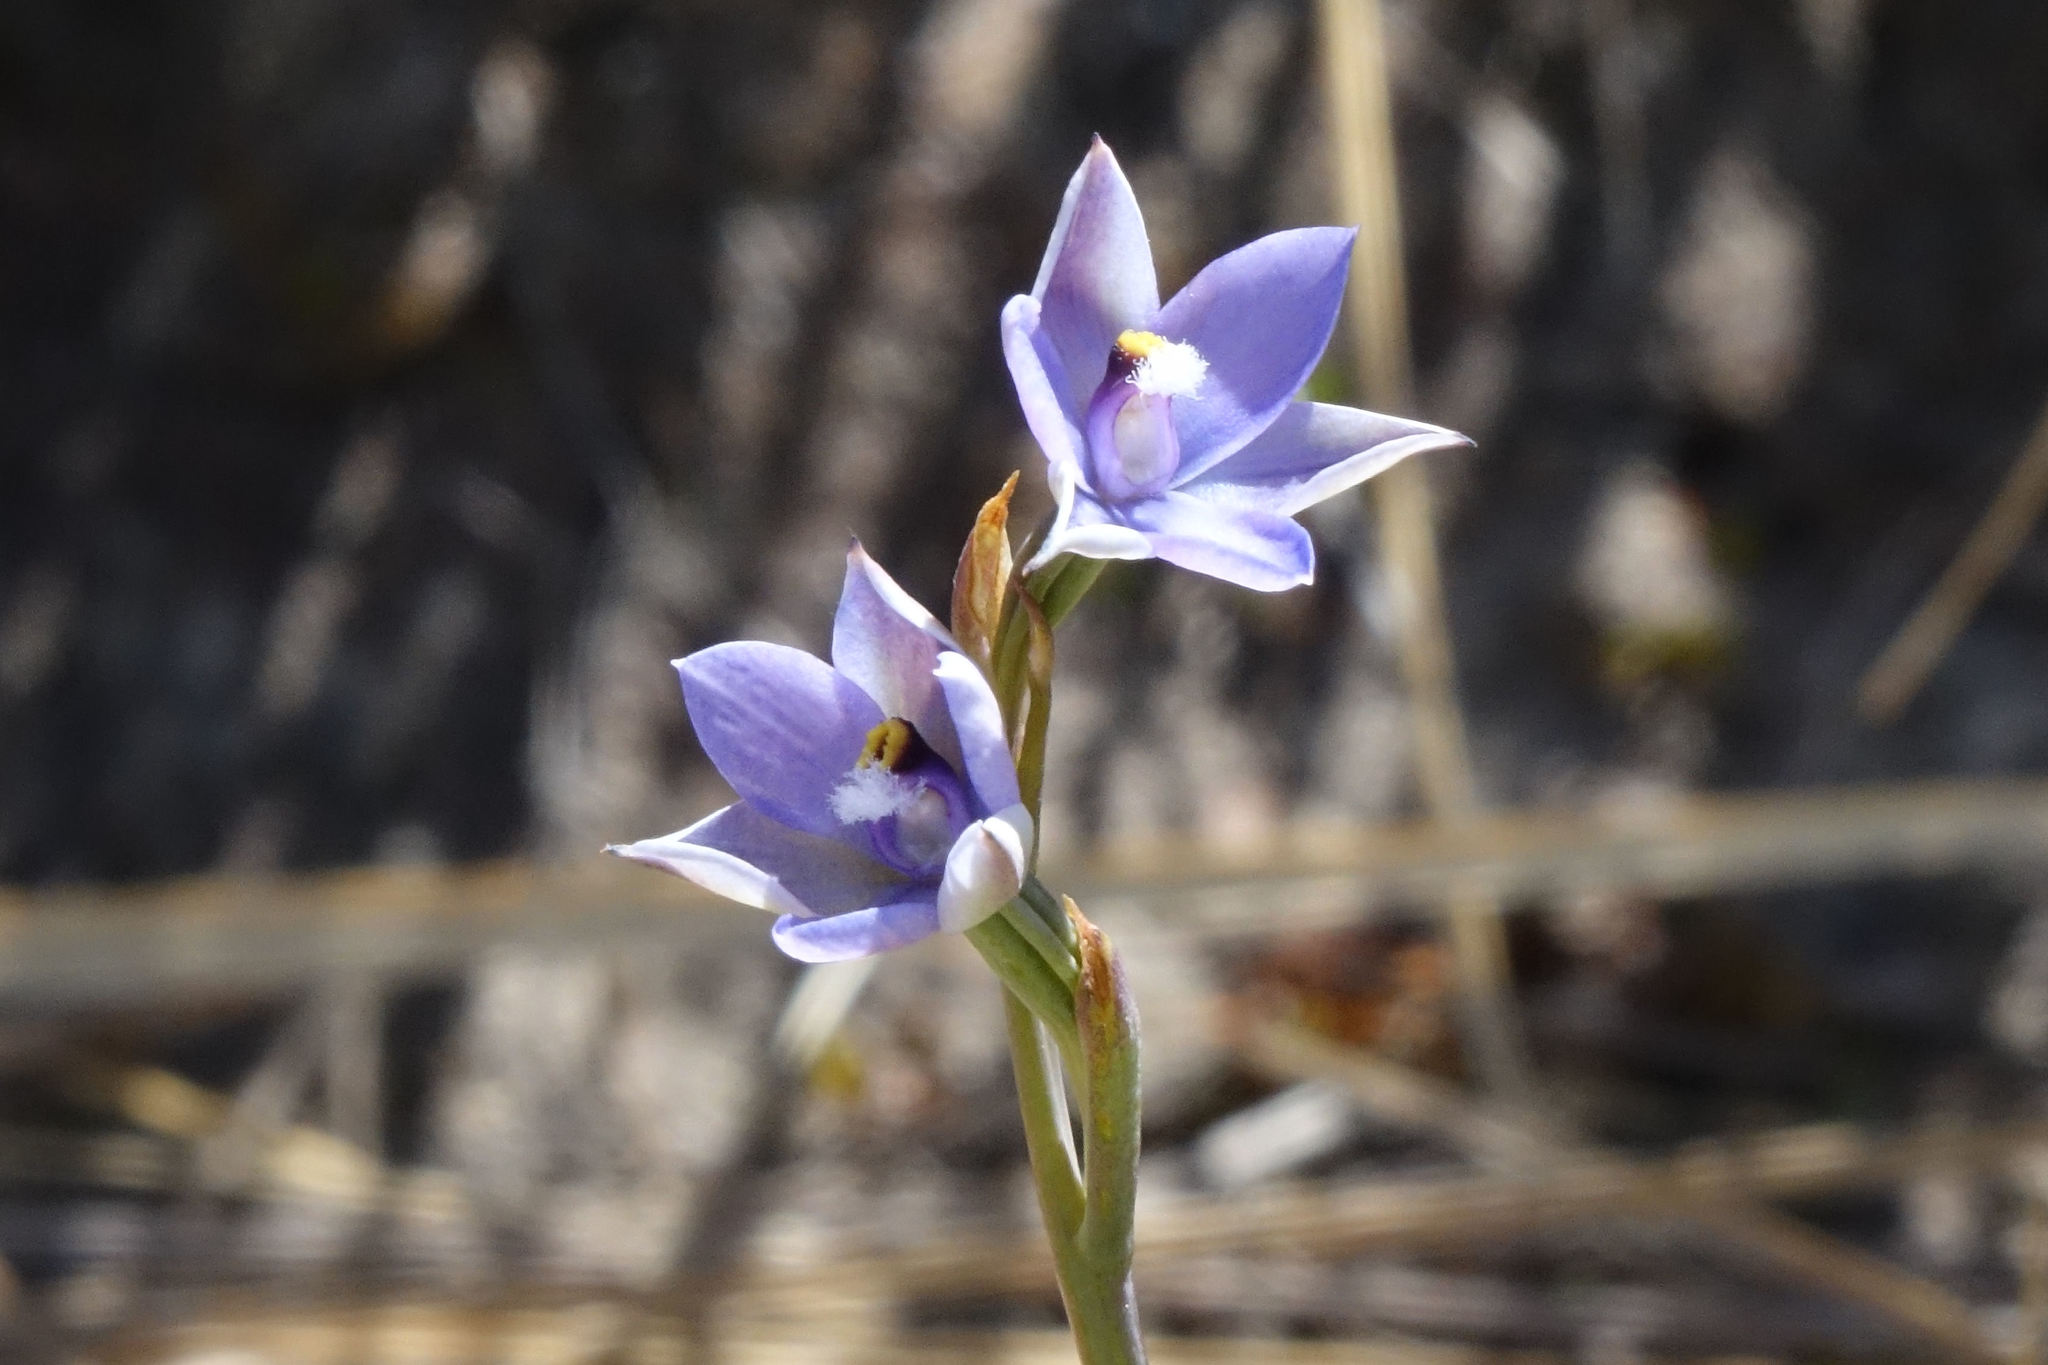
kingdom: Plantae
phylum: Tracheophyta
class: Liliopsida
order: Asparagales
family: Orchidaceae
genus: Thelymitra
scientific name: Thelymitra hatchii
